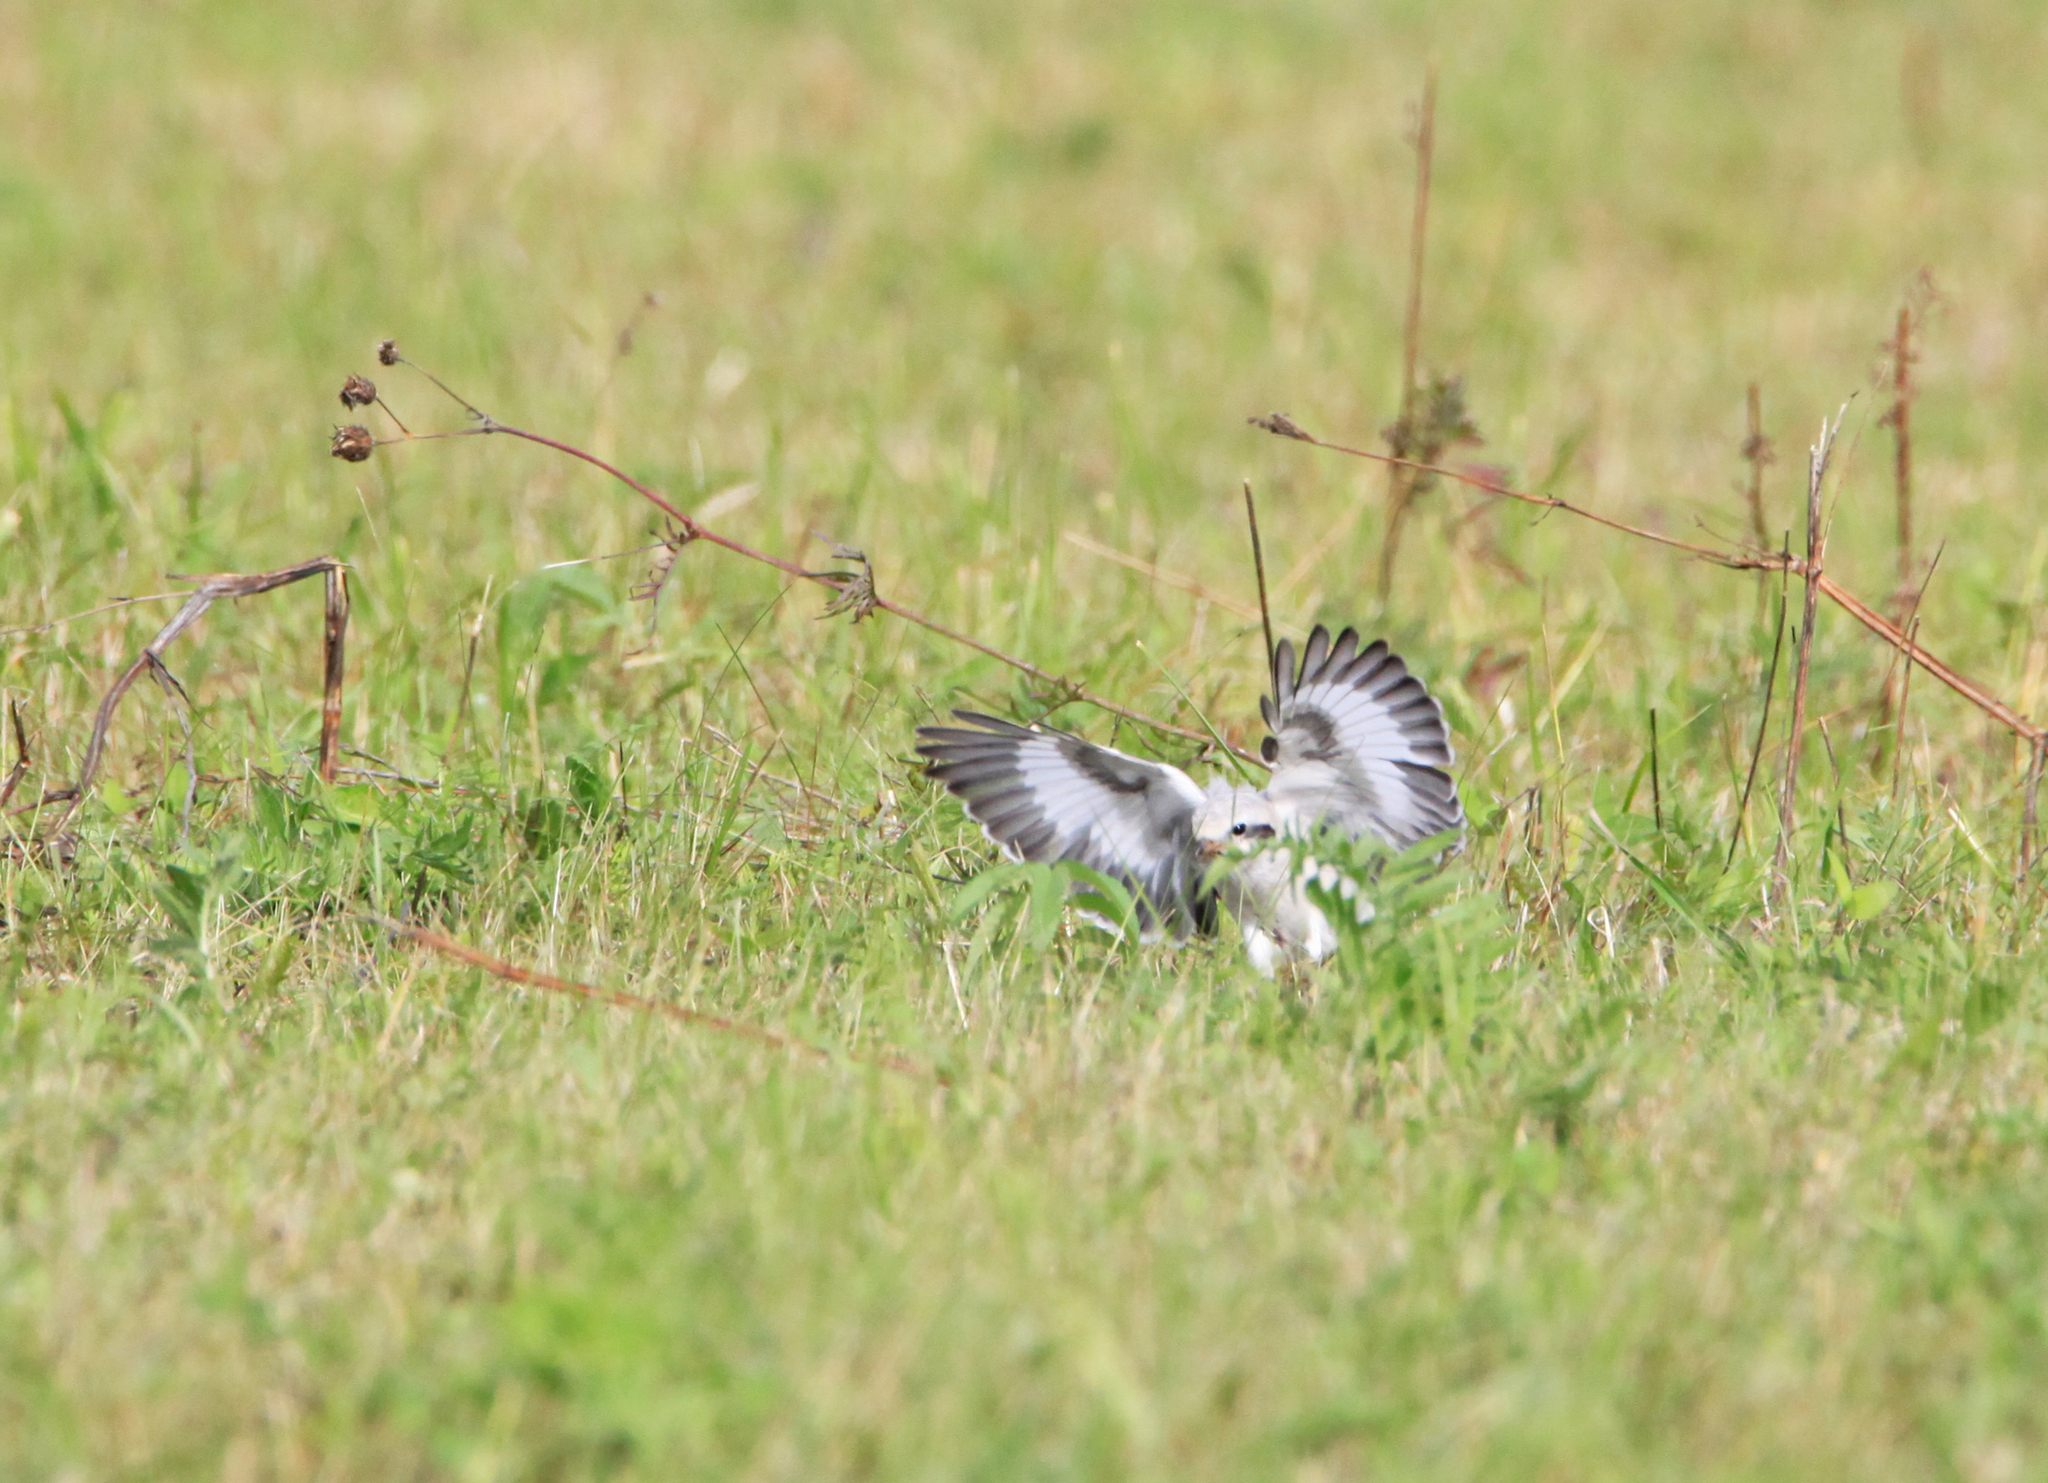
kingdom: Animalia
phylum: Chordata
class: Aves
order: Passeriformes
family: Laniidae
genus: Lanius
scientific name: Lanius excubitor
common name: Great grey shrike
